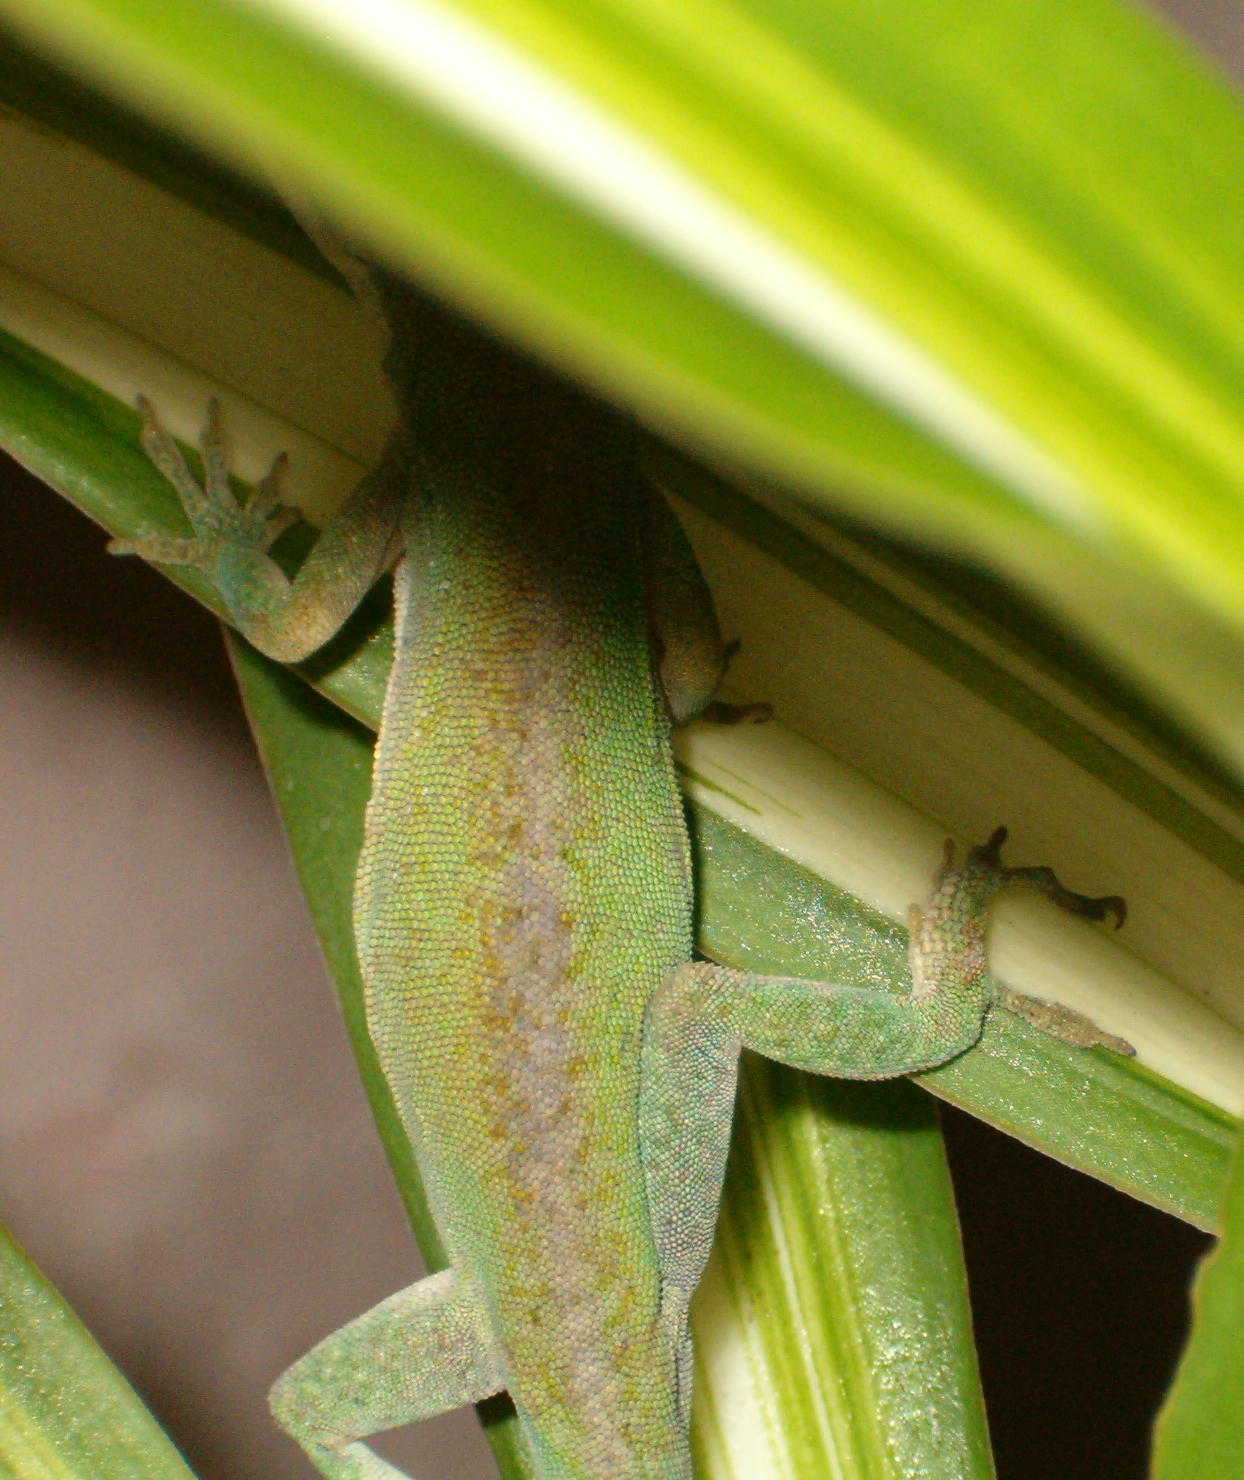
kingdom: Animalia
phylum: Chordata
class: Squamata
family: Dactyloidae
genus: Anolis
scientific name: Anolis carolinensis
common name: Green anole
